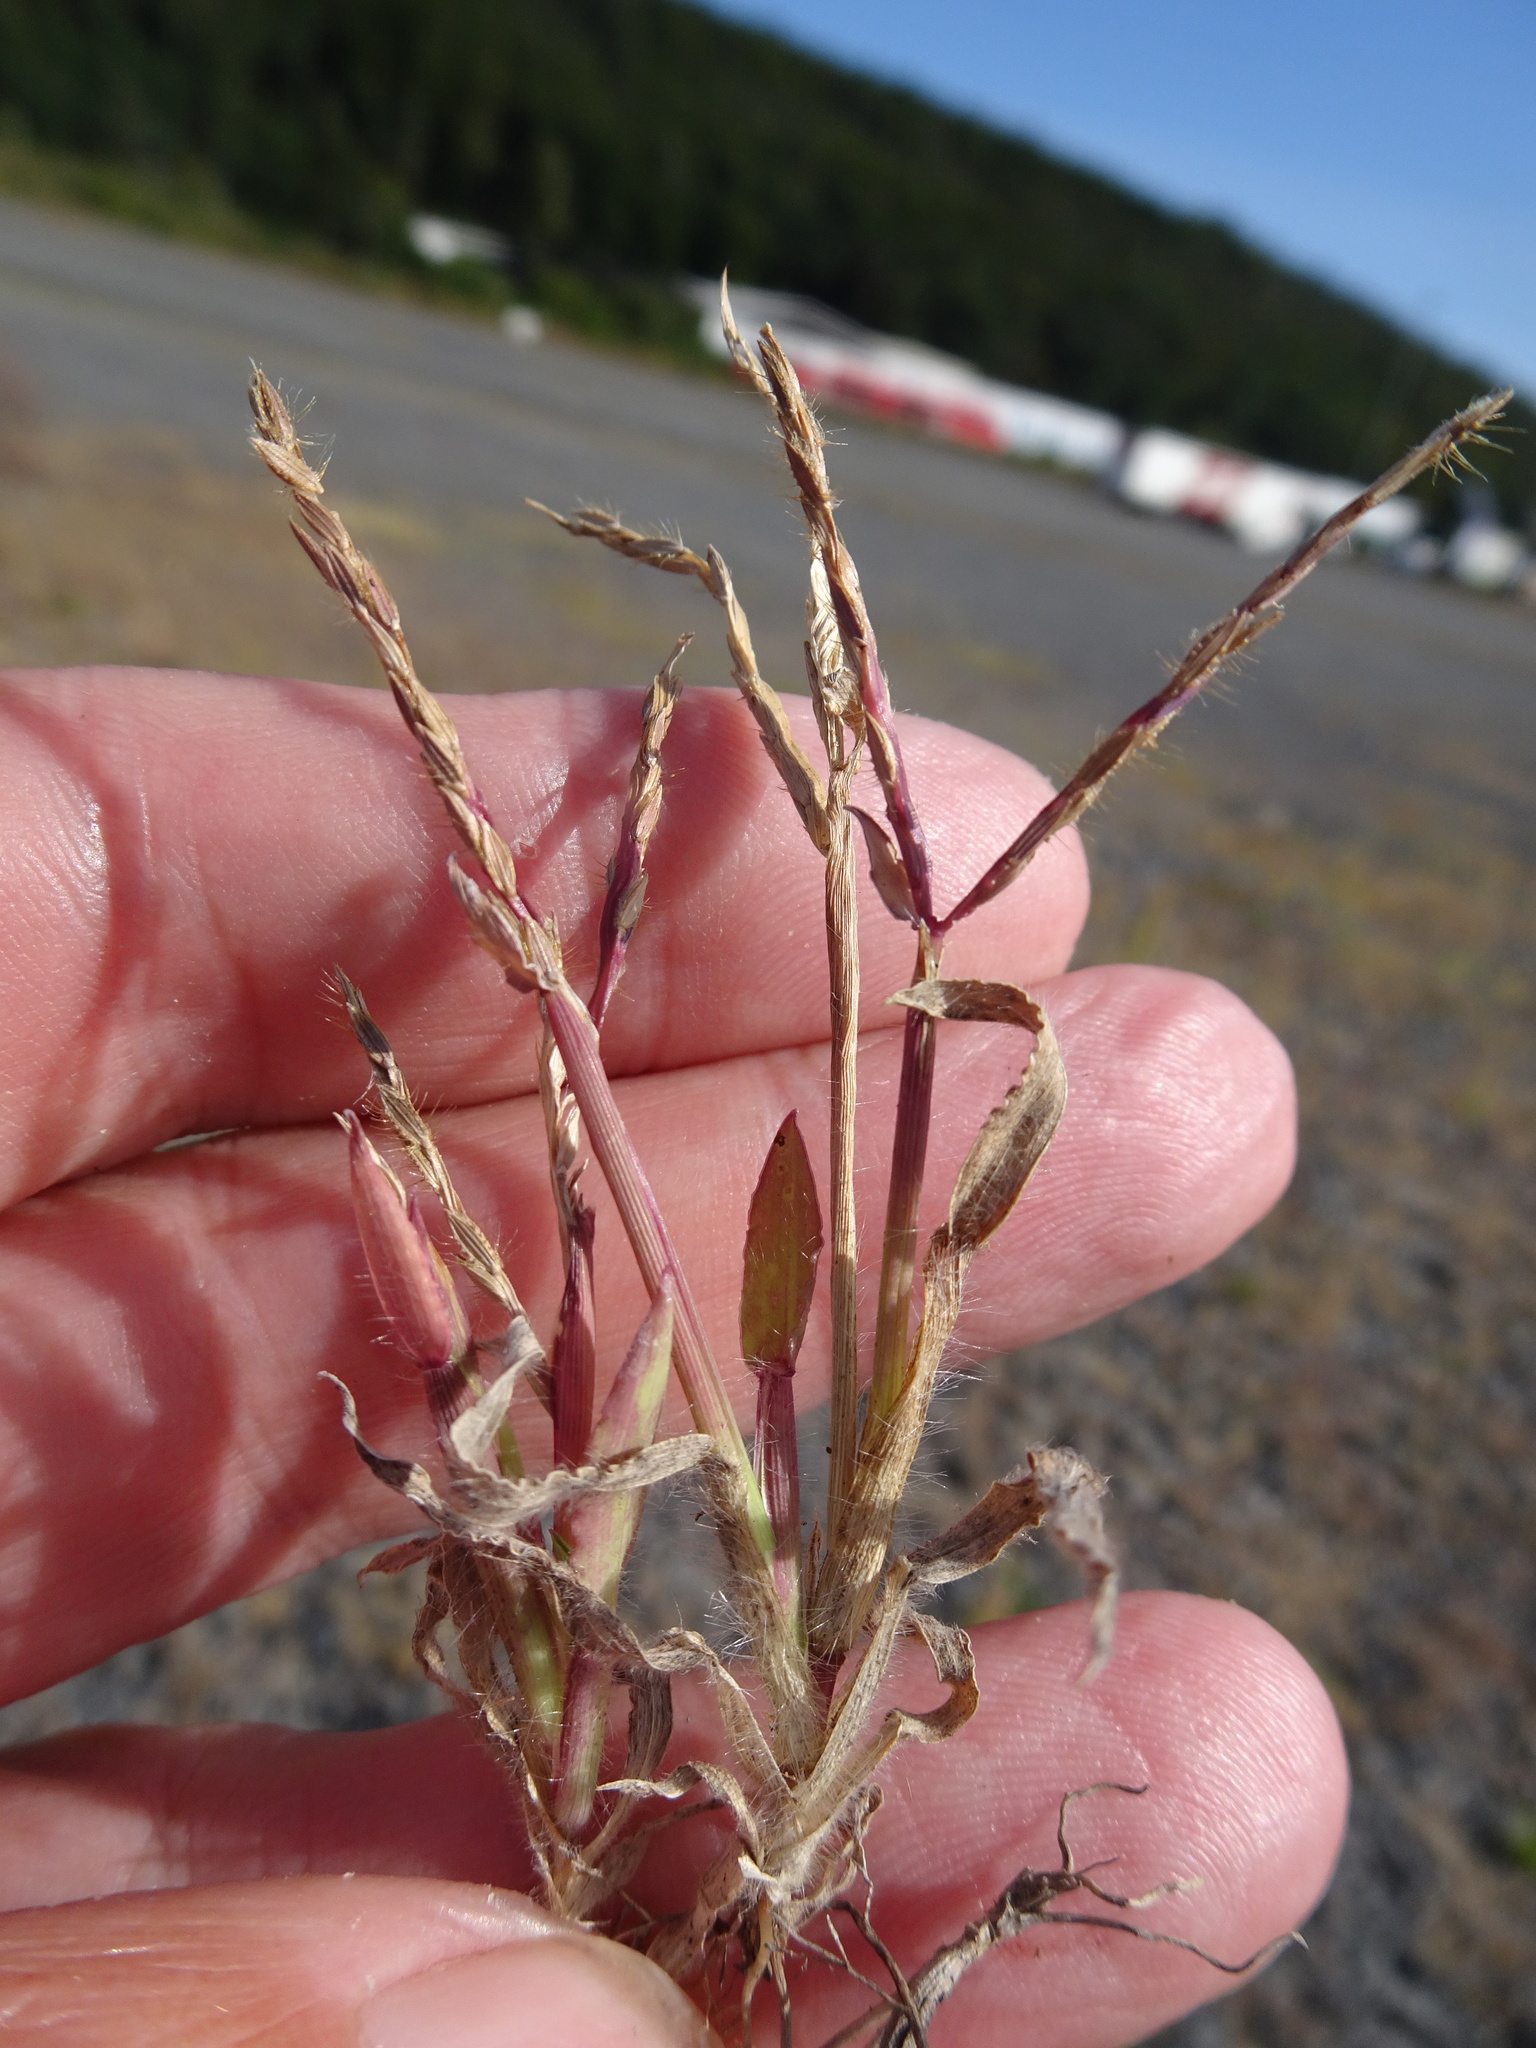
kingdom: Plantae
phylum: Tracheophyta
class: Liliopsida
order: Poales
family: Poaceae
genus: Digitaria
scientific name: Digitaria sanguinalis
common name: Hairy crabgrass
